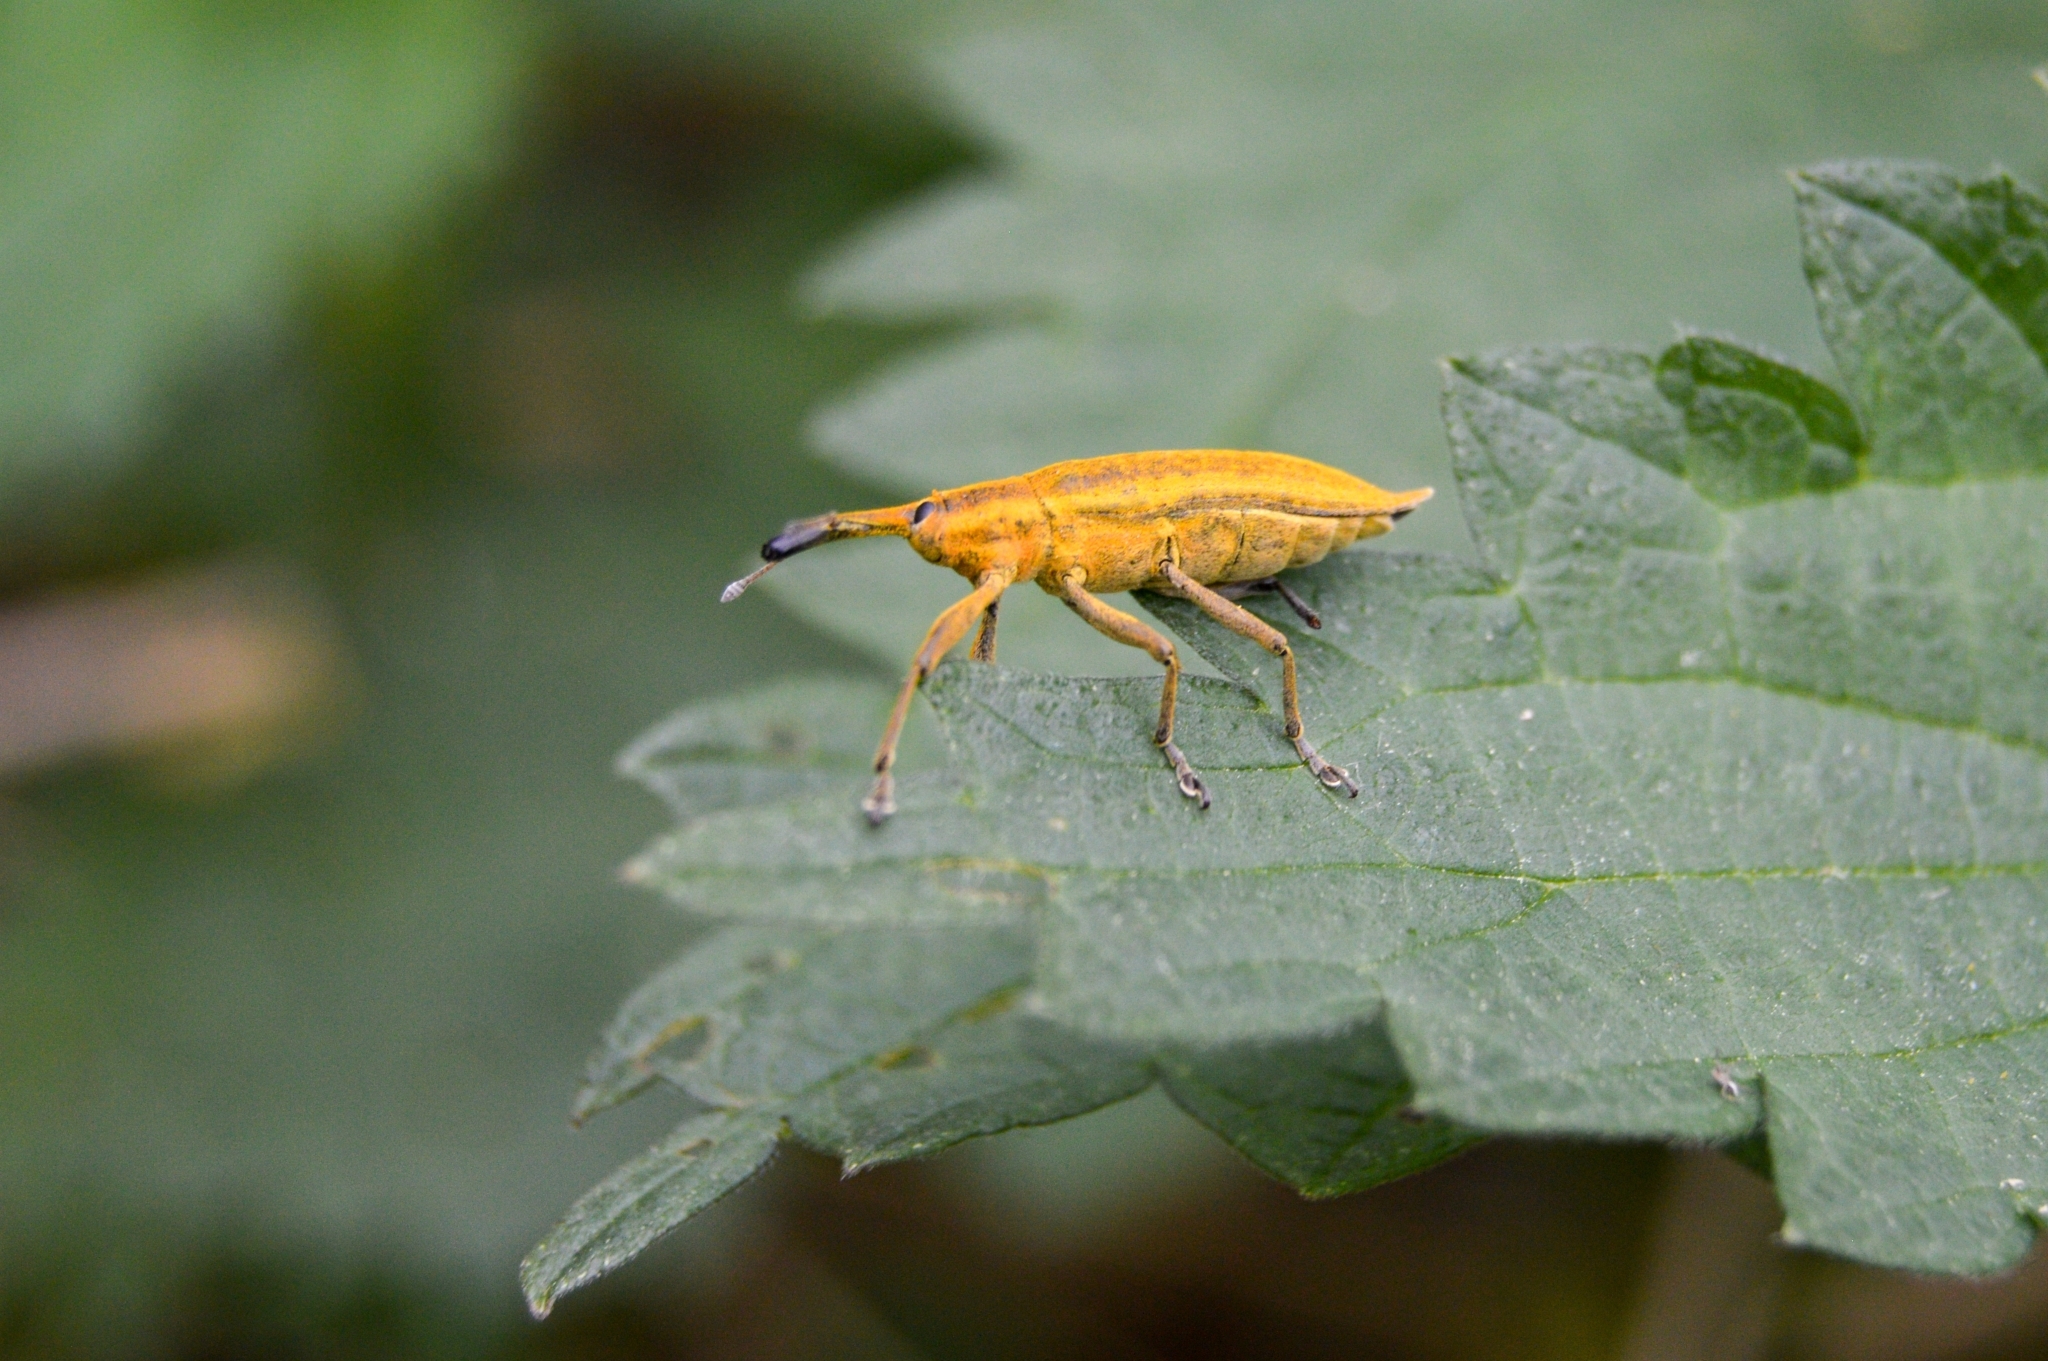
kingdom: Animalia
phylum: Arthropoda
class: Insecta
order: Coleoptera
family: Curculionidae
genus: Lixus
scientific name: Lixus iridis
